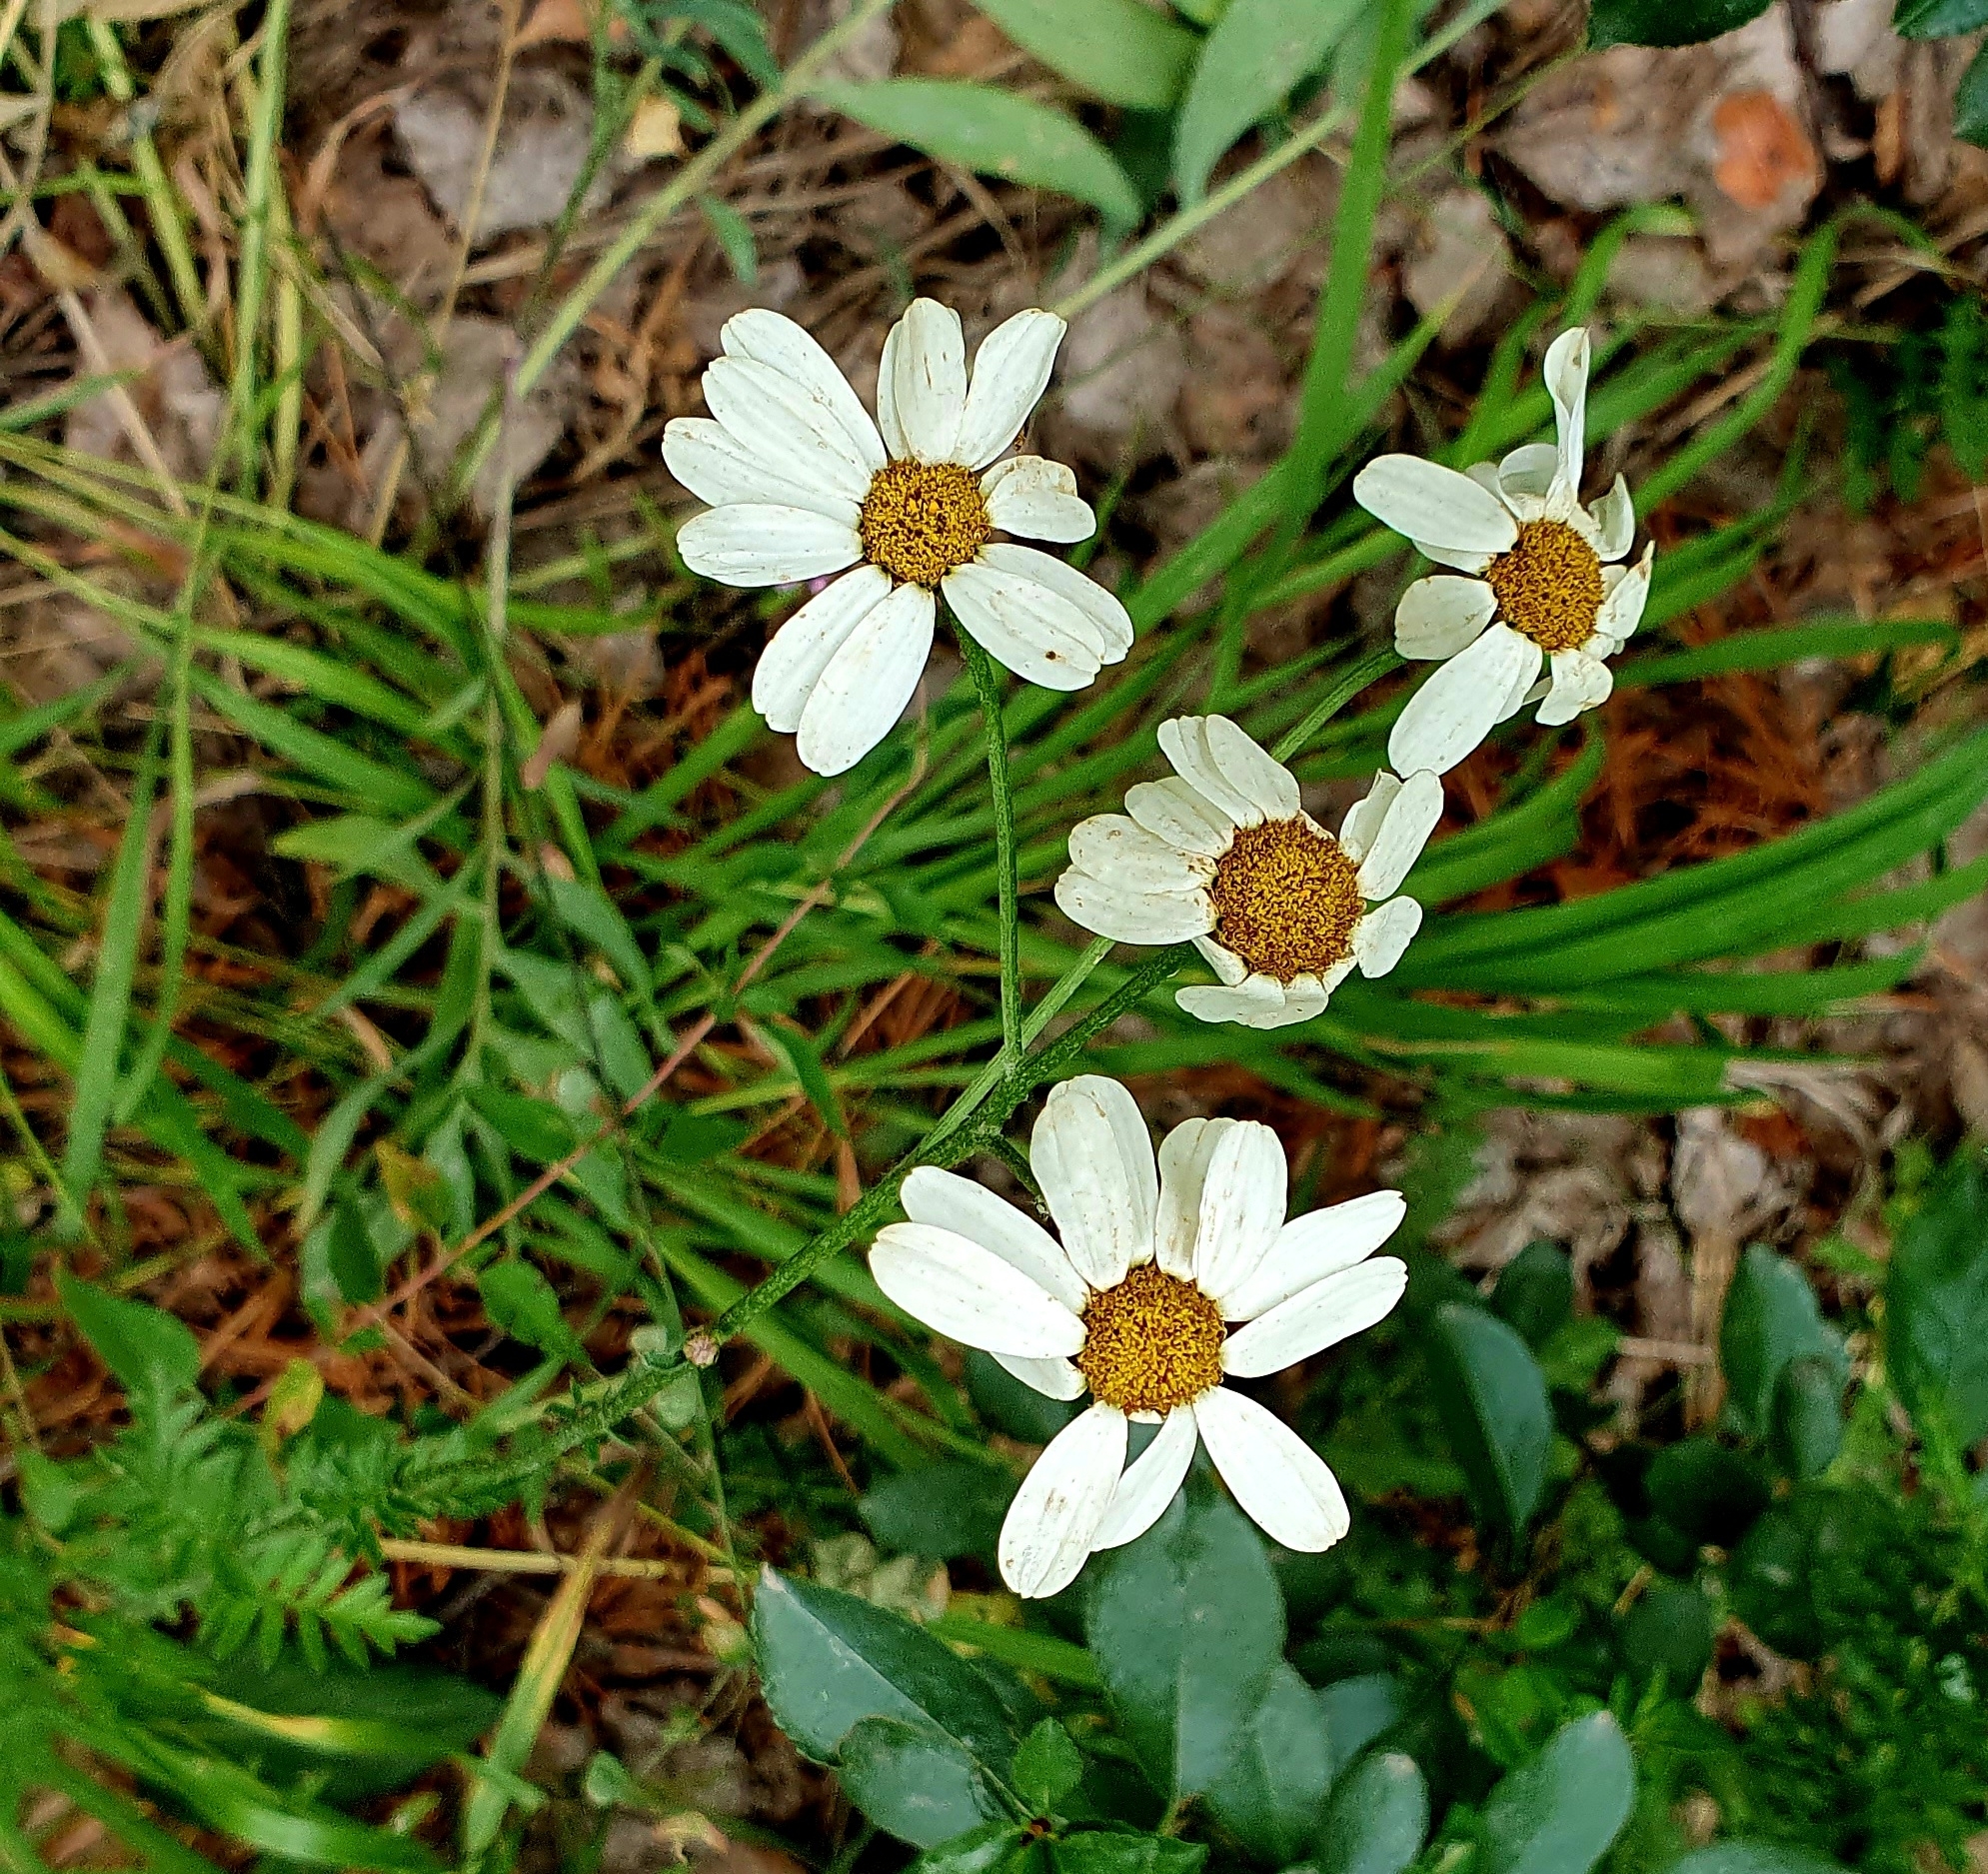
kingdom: Plantae
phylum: Tracheophyta
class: Magnoliopsida
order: Asterales
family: Asteraceae
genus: Tanacetum
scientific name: Tanacetum corymbosum
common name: Scentless feverfew
